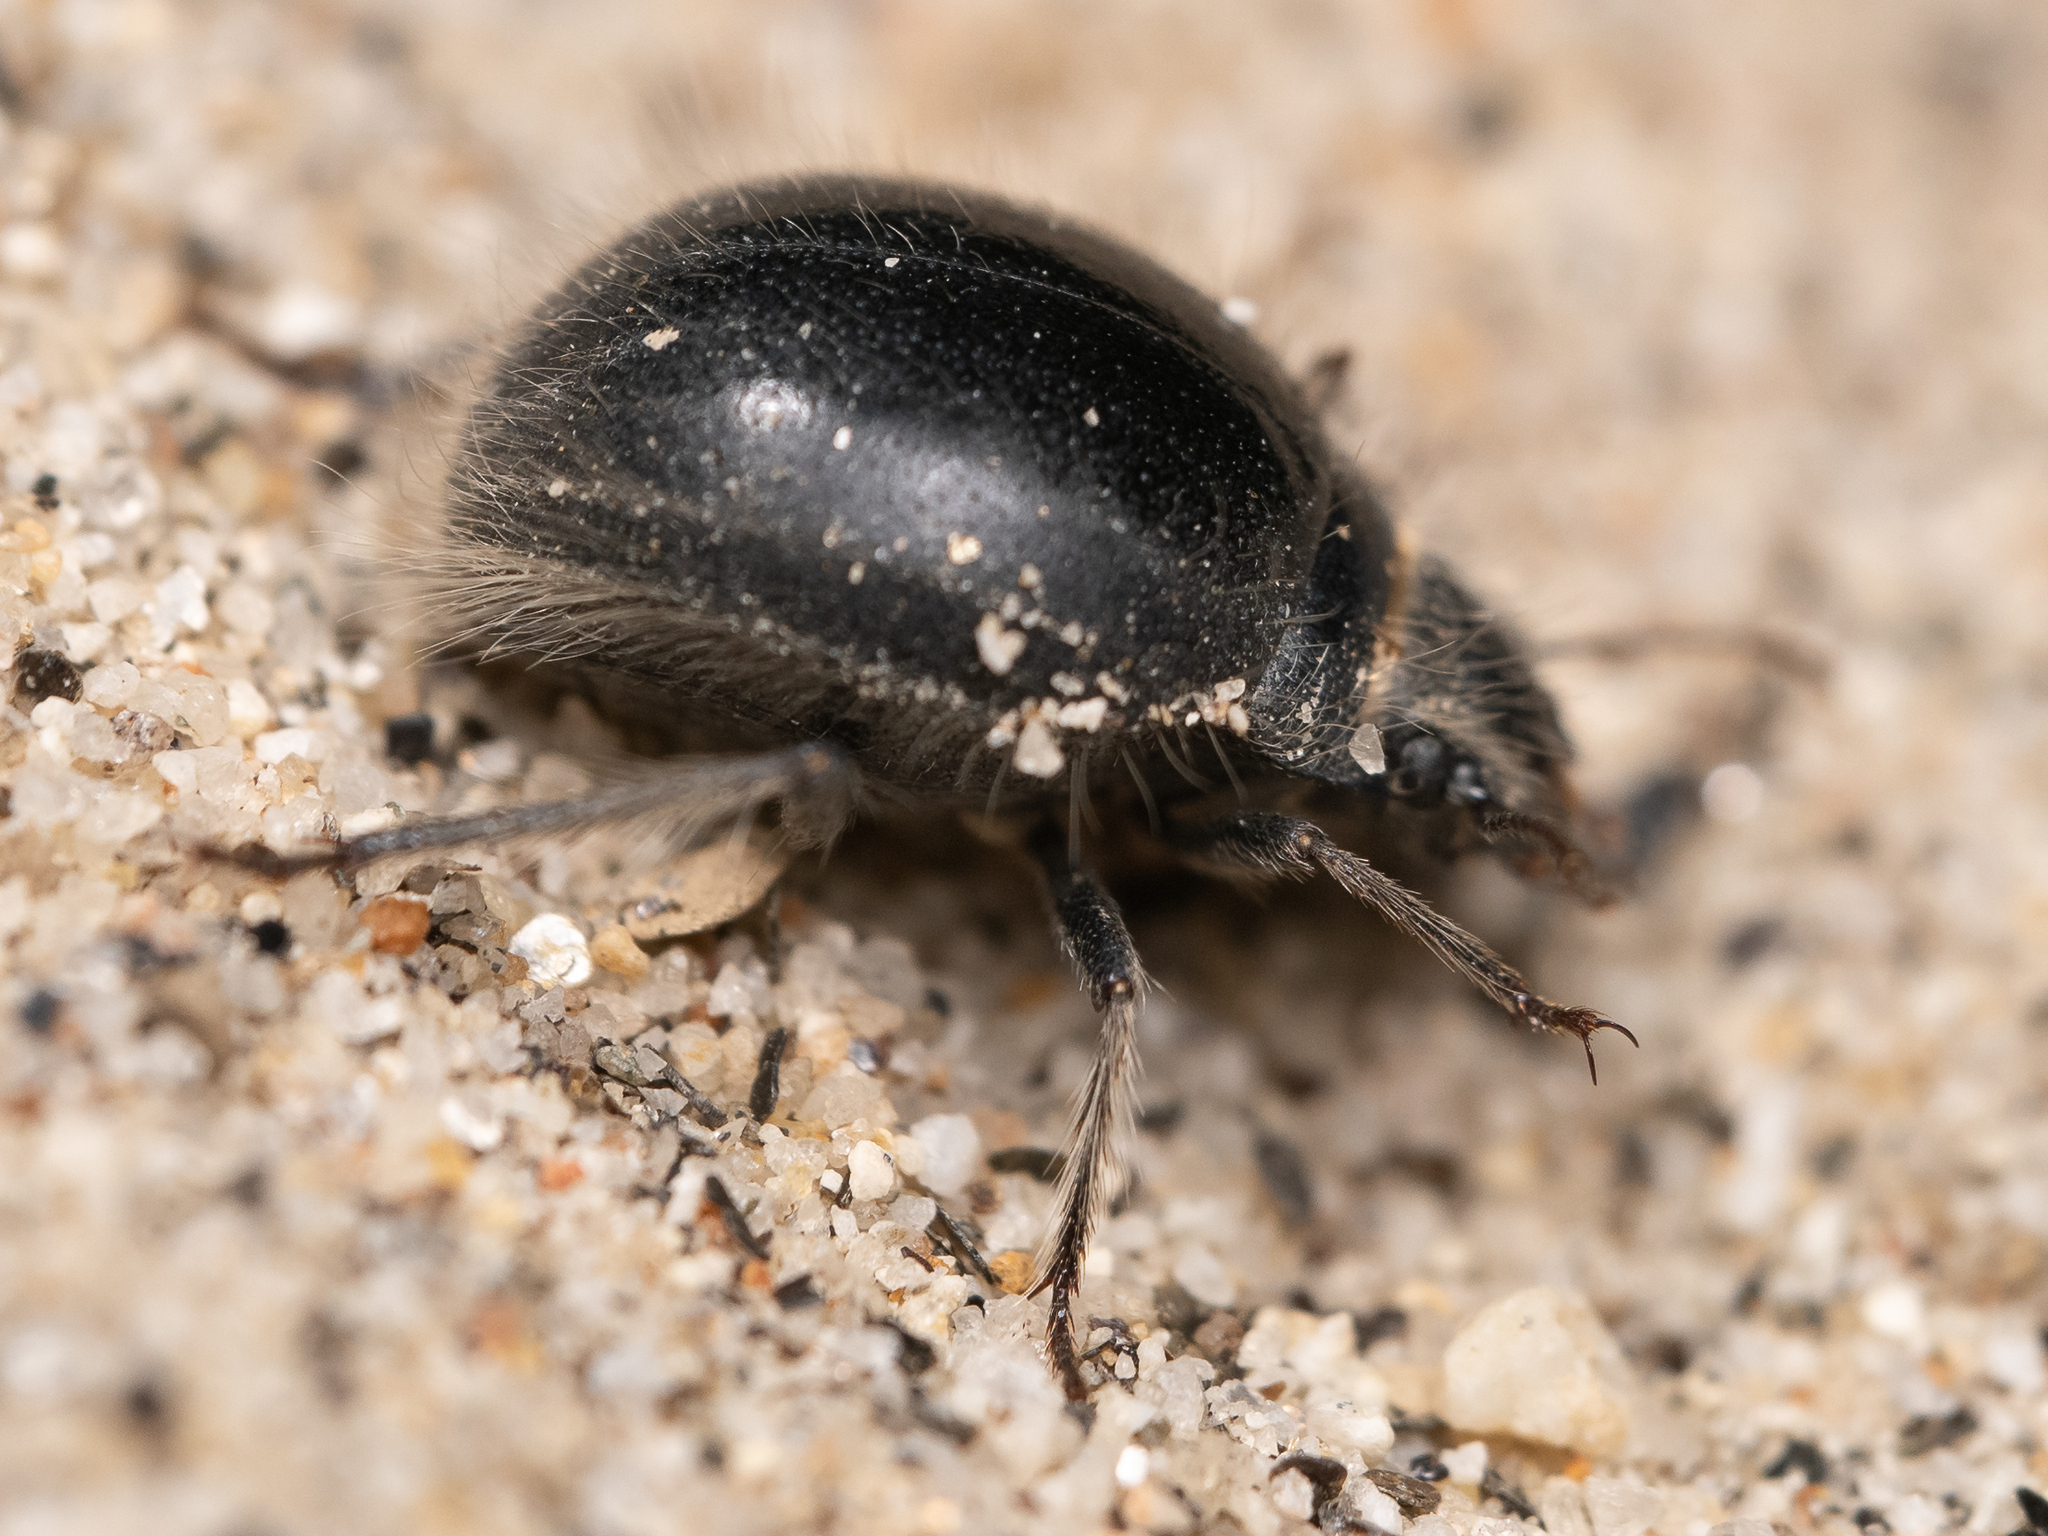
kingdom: Animalia
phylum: Arthropoda
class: Insecta
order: Coleoptera
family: Tenebrionidae
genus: Edrotes
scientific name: Edrotes ventricosus
